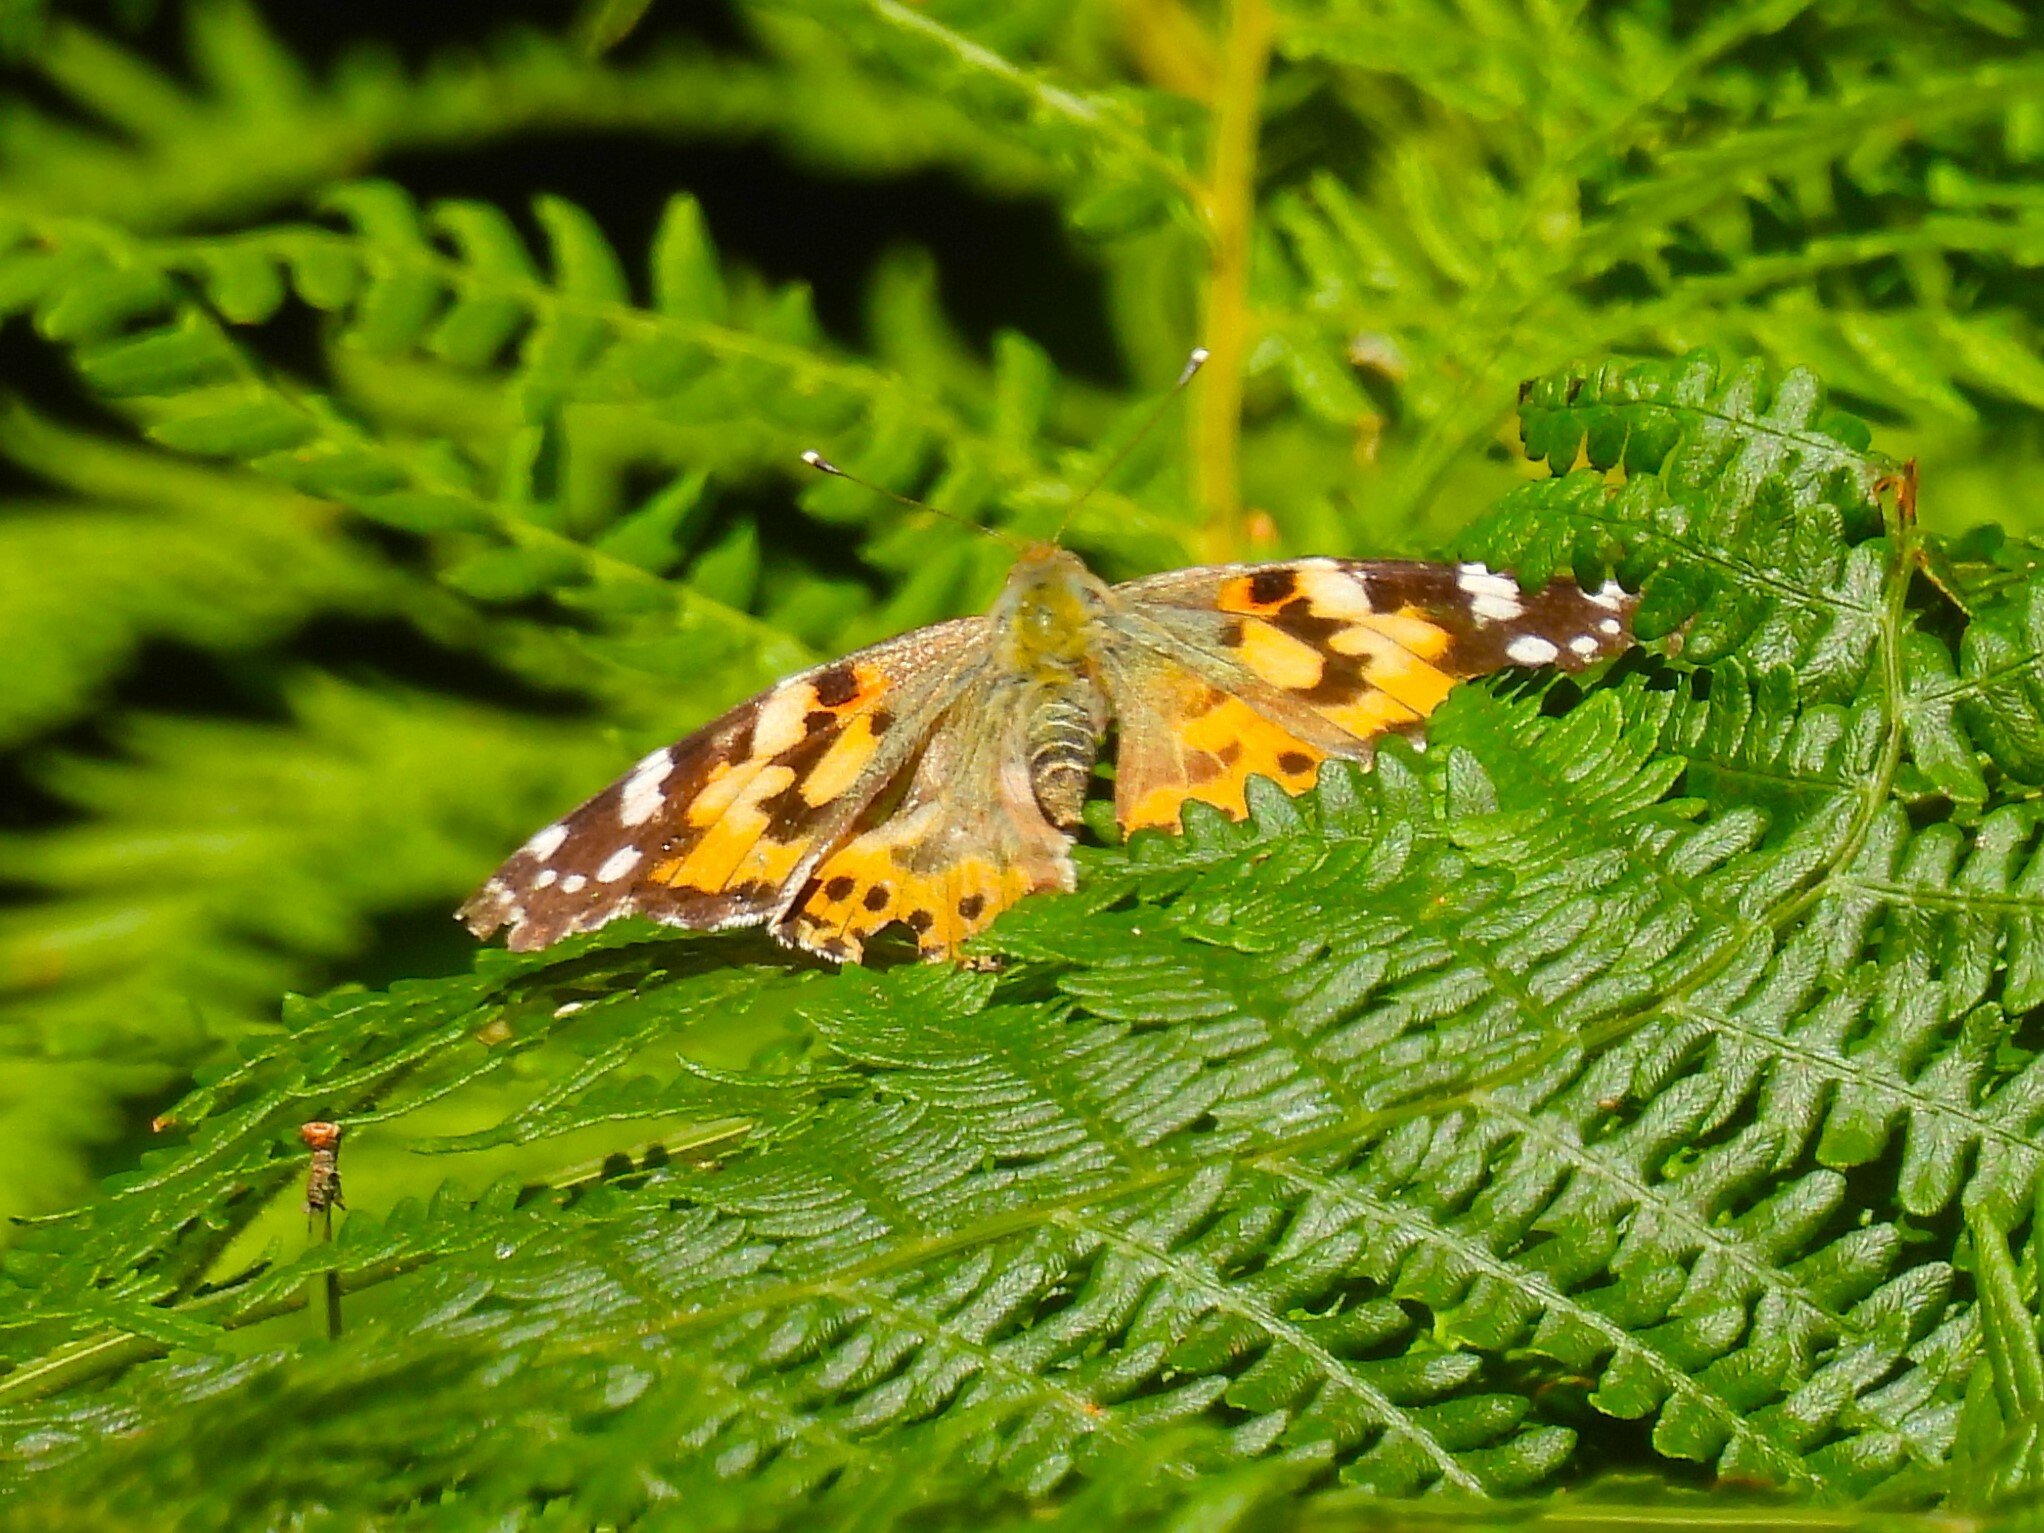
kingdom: Animalia
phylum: Arthropoda
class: Insecta
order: Lepidoptera
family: Nymphalidae
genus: Vanessa
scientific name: Vanessa cardui
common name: Painted lady
